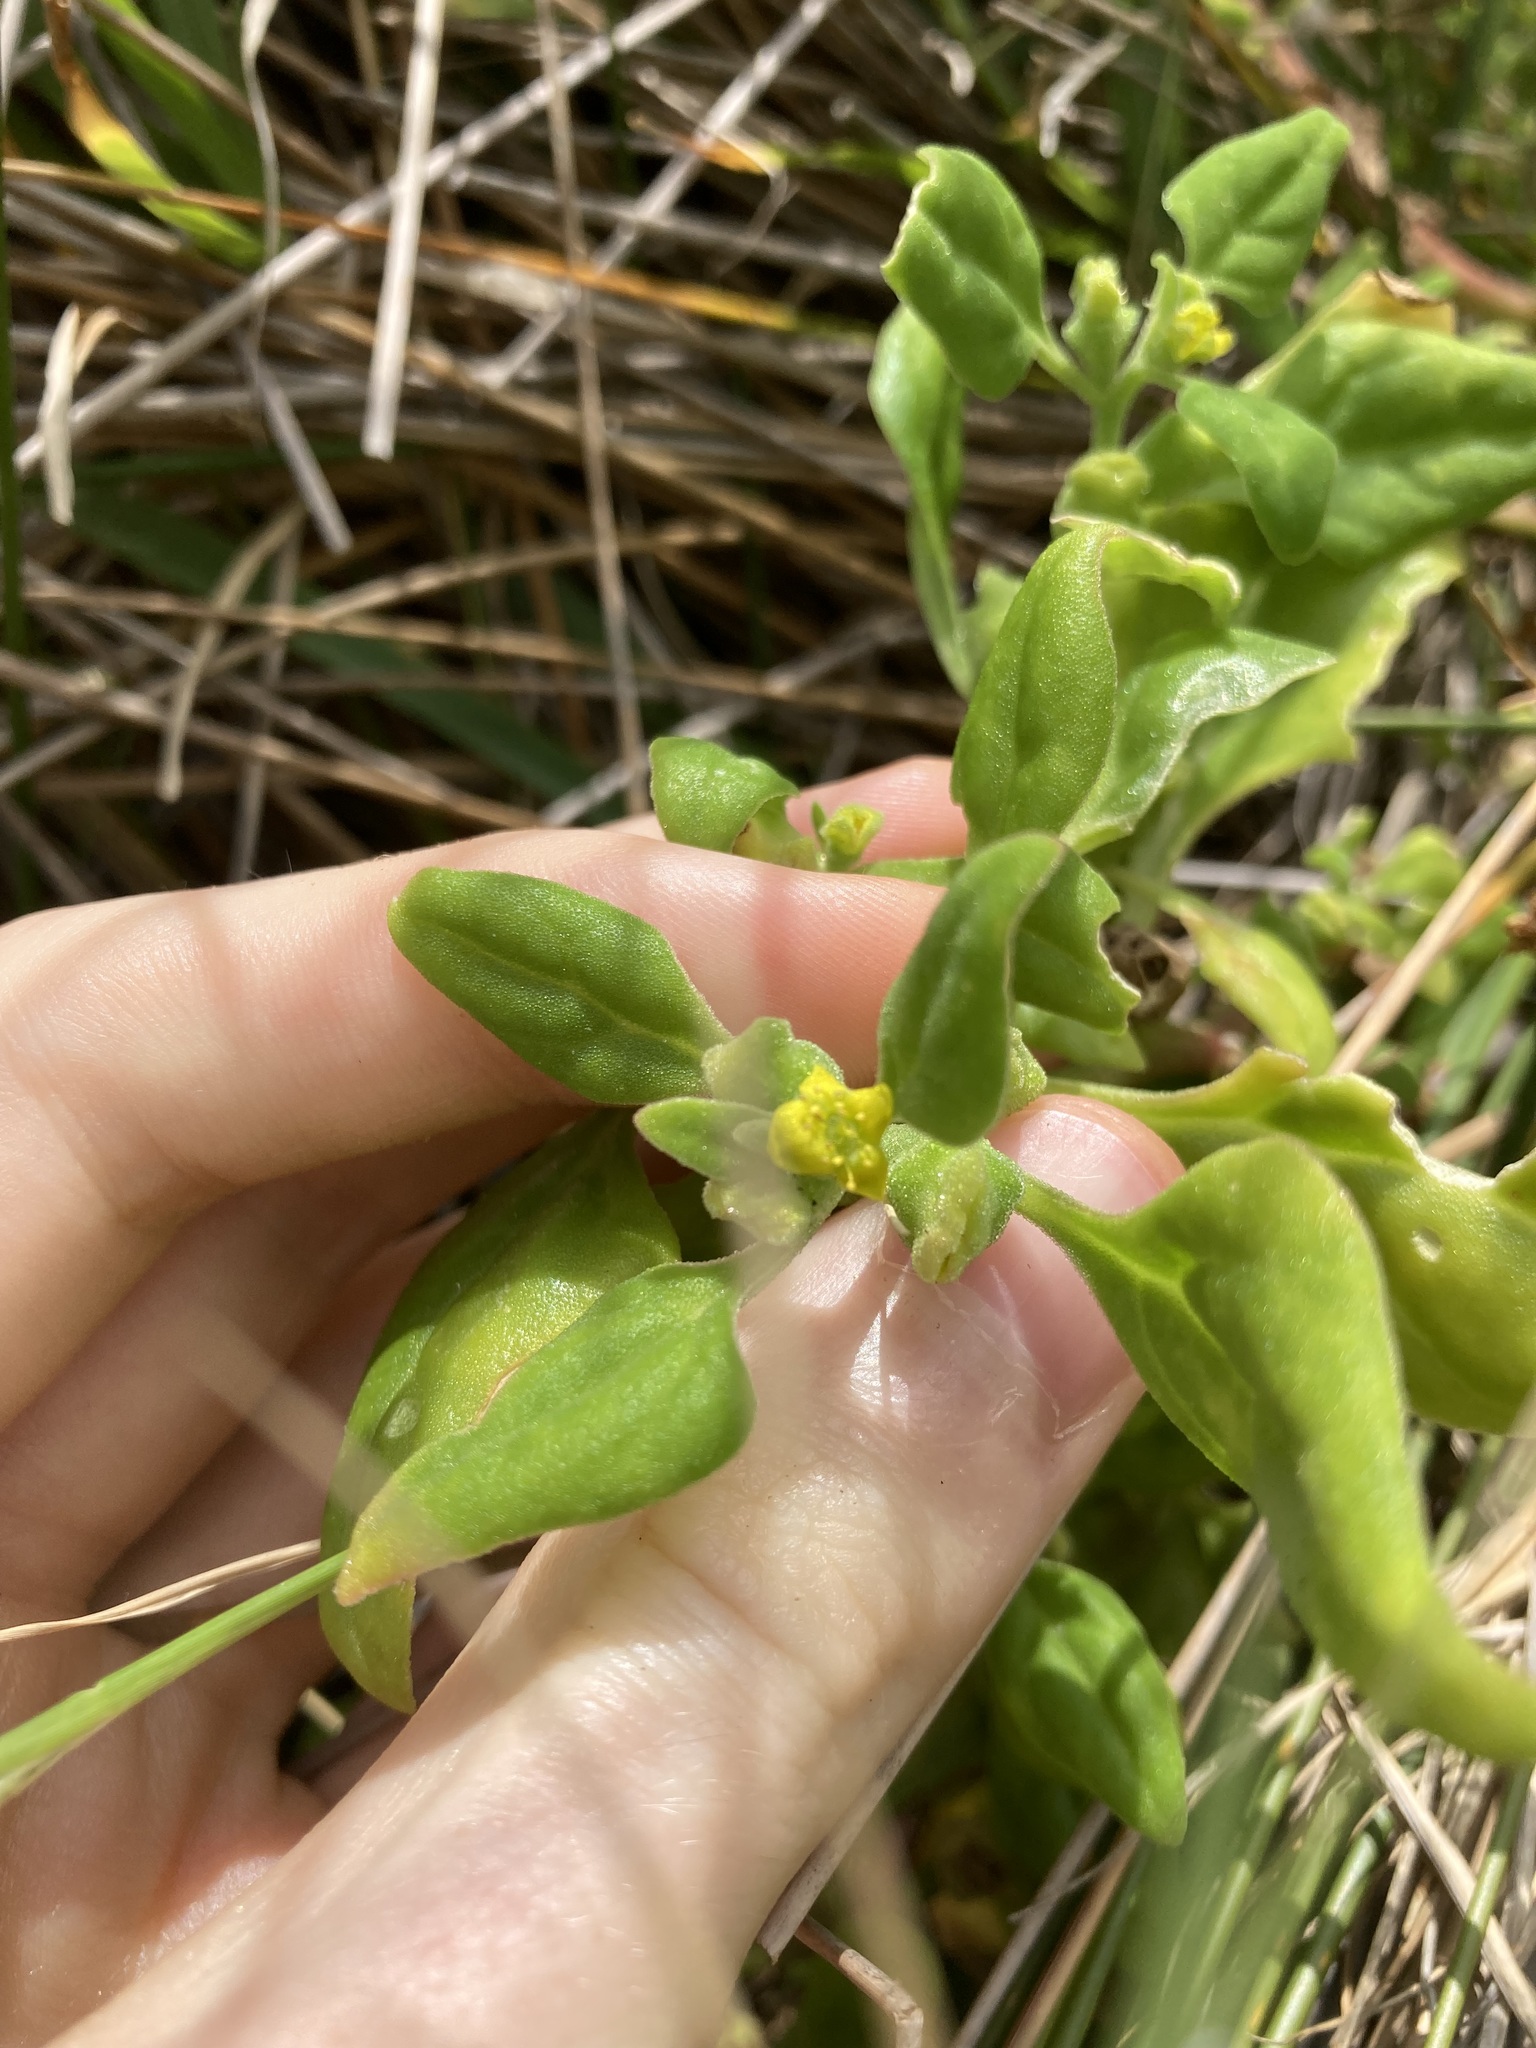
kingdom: Plantae
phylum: Tracheophyta
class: Magnoliopsida
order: Caryophyllales
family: Aizoaceae
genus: Tetragonia
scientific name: Tetragonia tetragonoides
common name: New zealand-spinach
